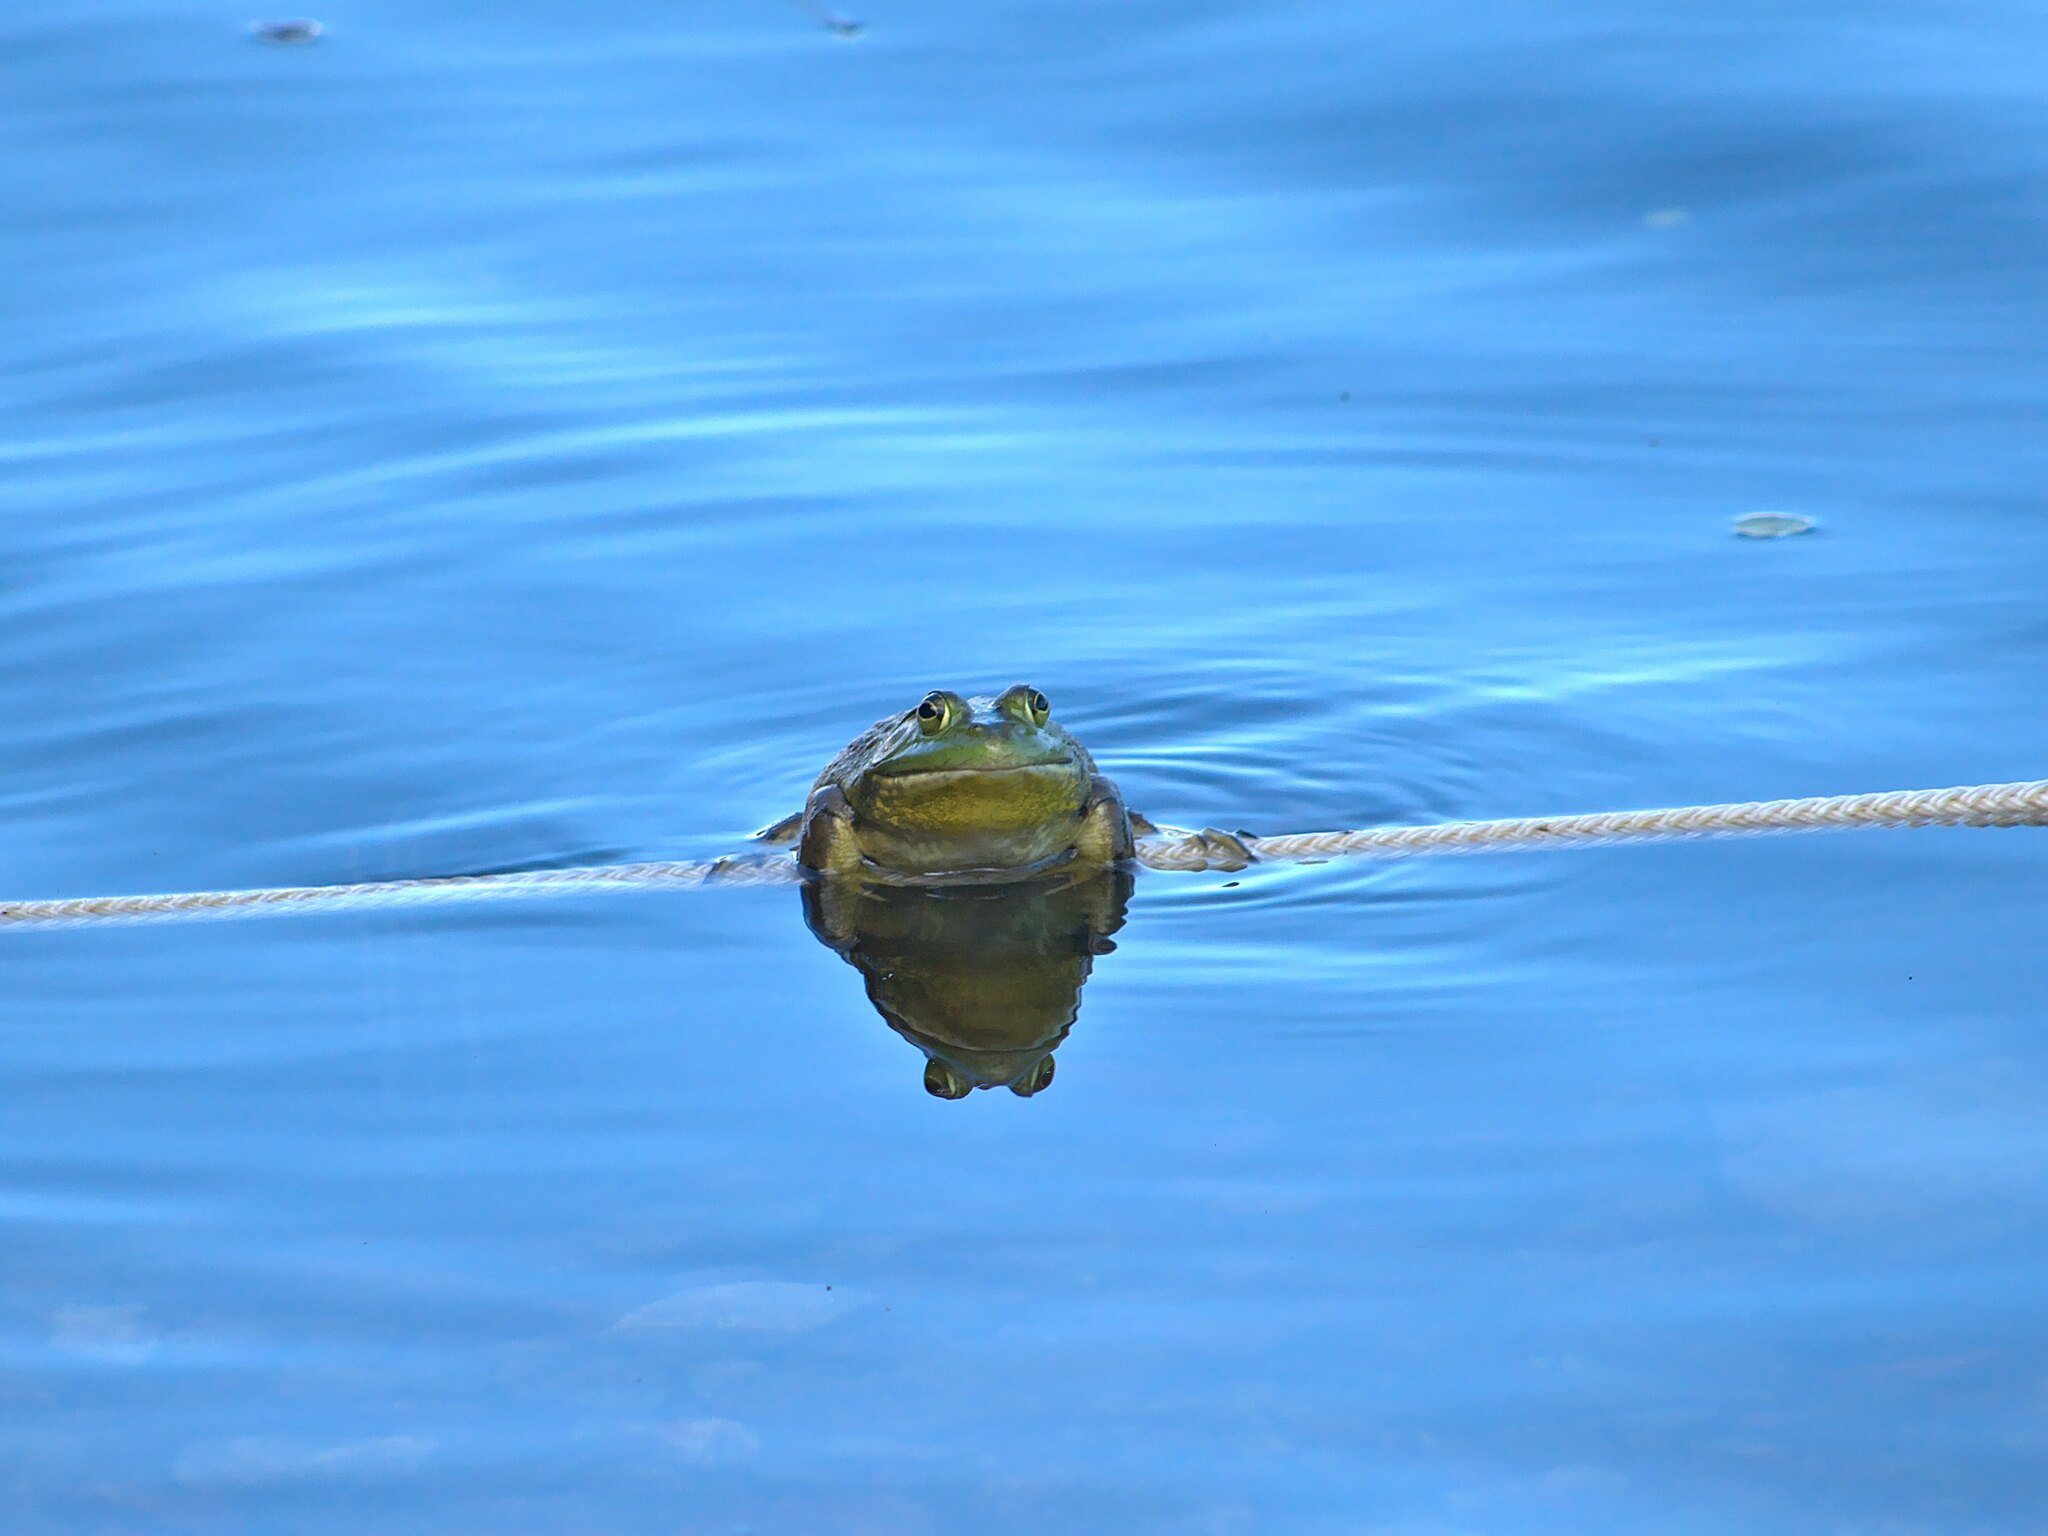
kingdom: Animalia
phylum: Chordata
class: Amphibia
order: Anura
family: Ranidae
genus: Lithobates
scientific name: Lithobates catesbeianus
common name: American bullfrog
